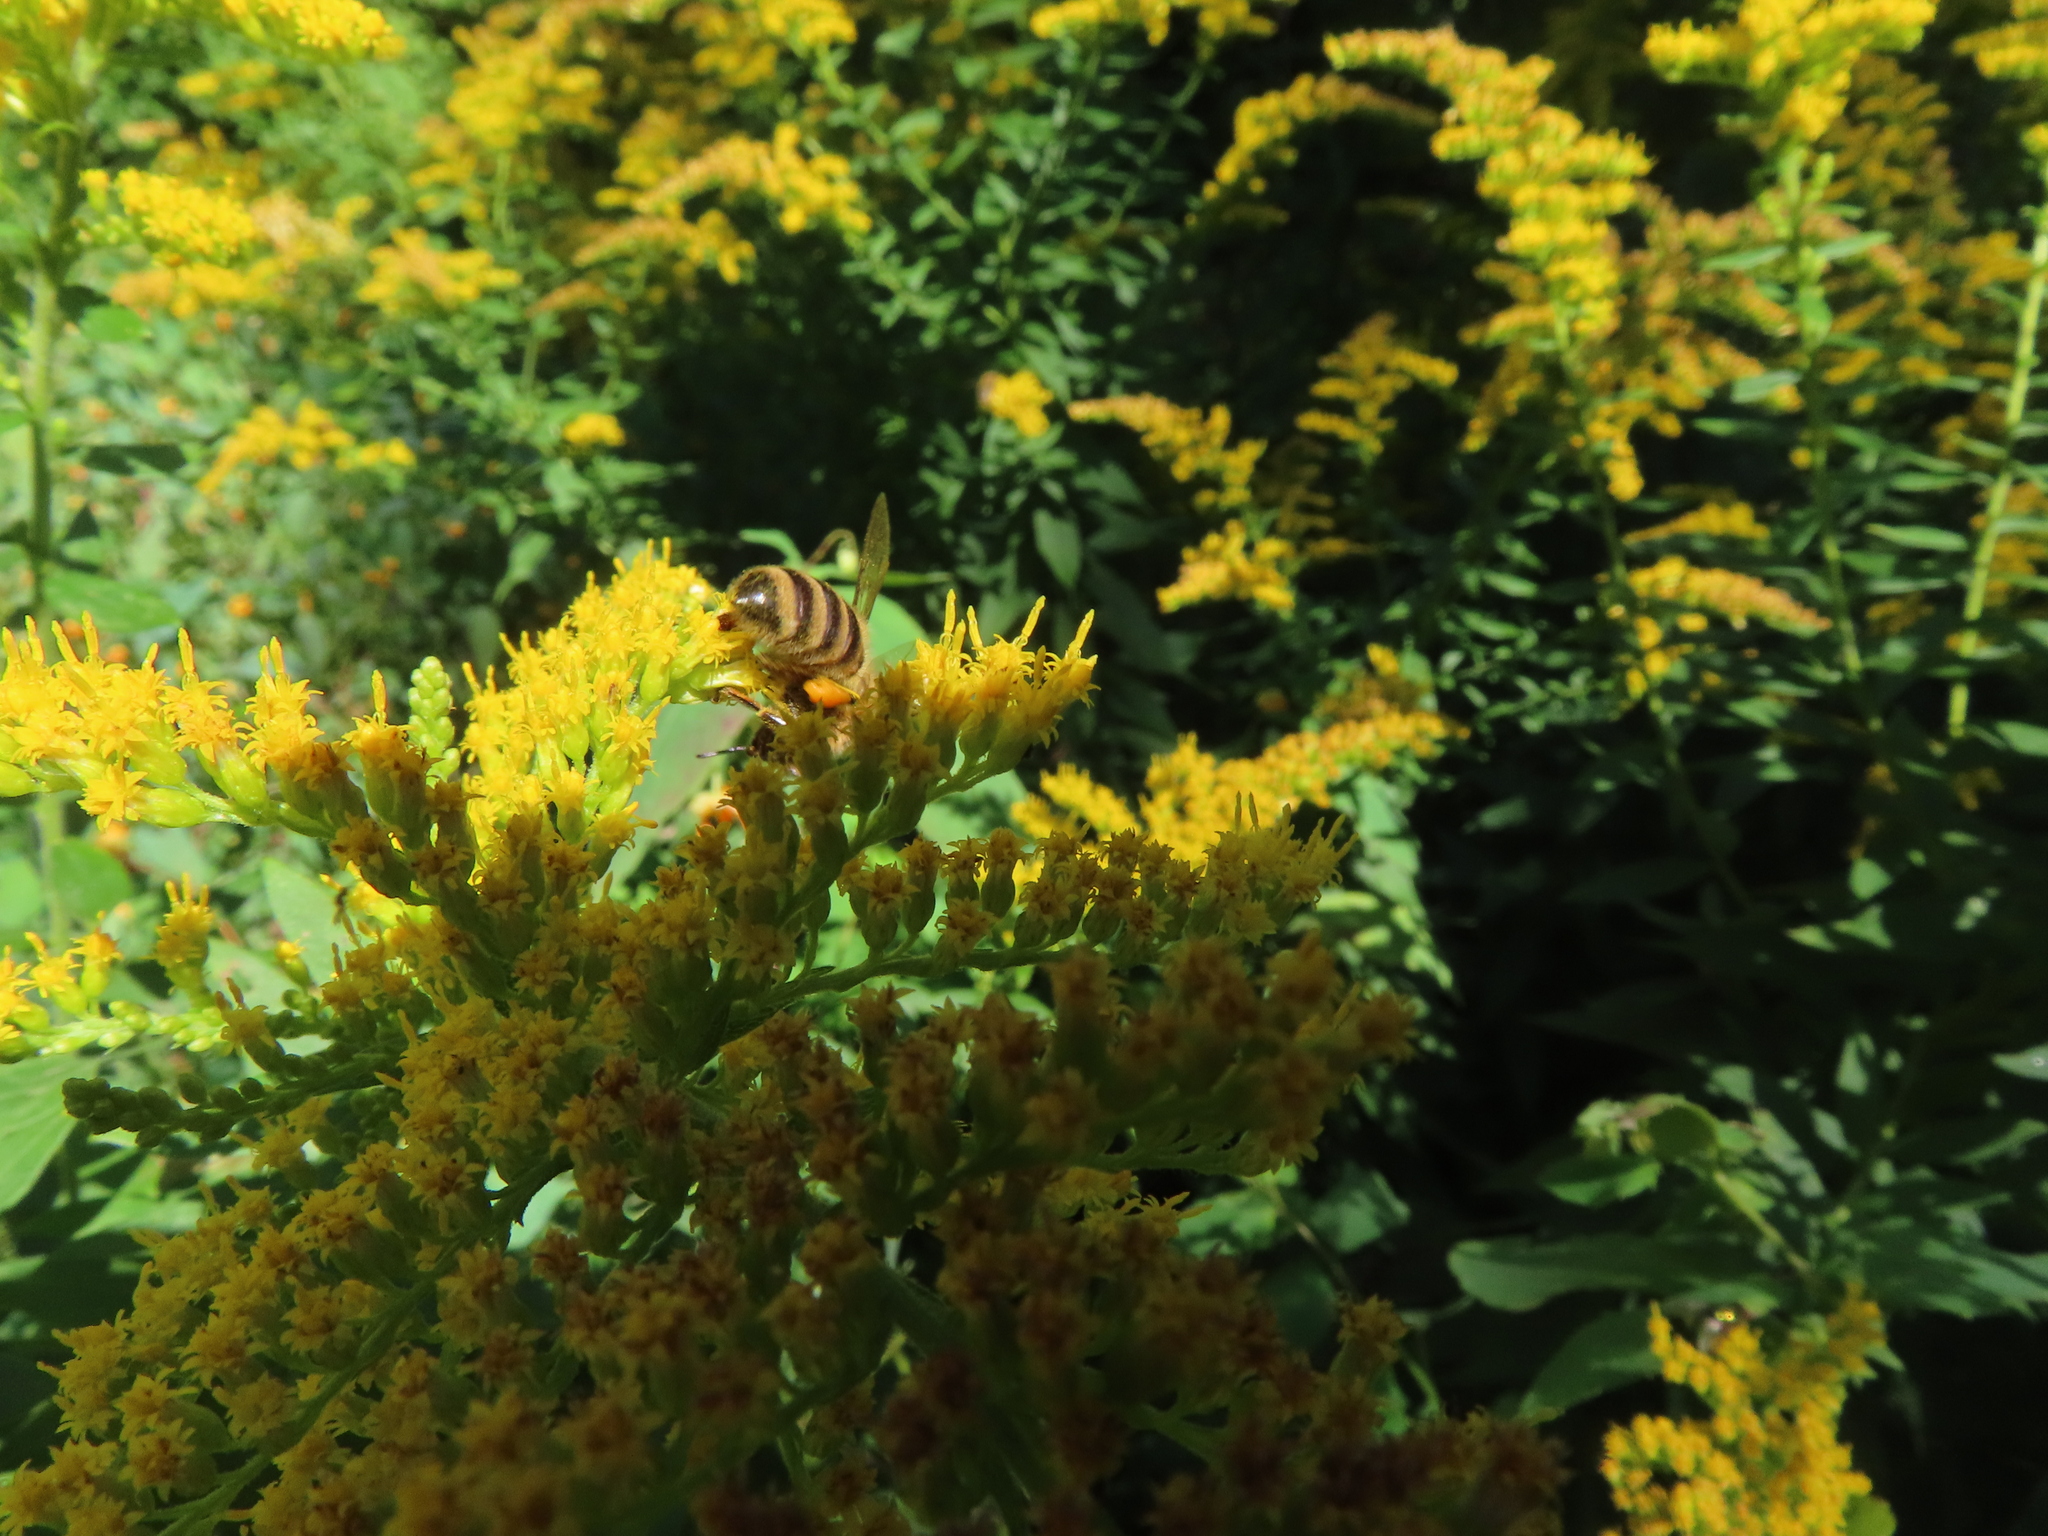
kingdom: Animalia
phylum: Arthropoda
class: Insecta
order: Hymenoptera
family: Apidae
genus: Apis
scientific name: Apis mellifera
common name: Honey bee
